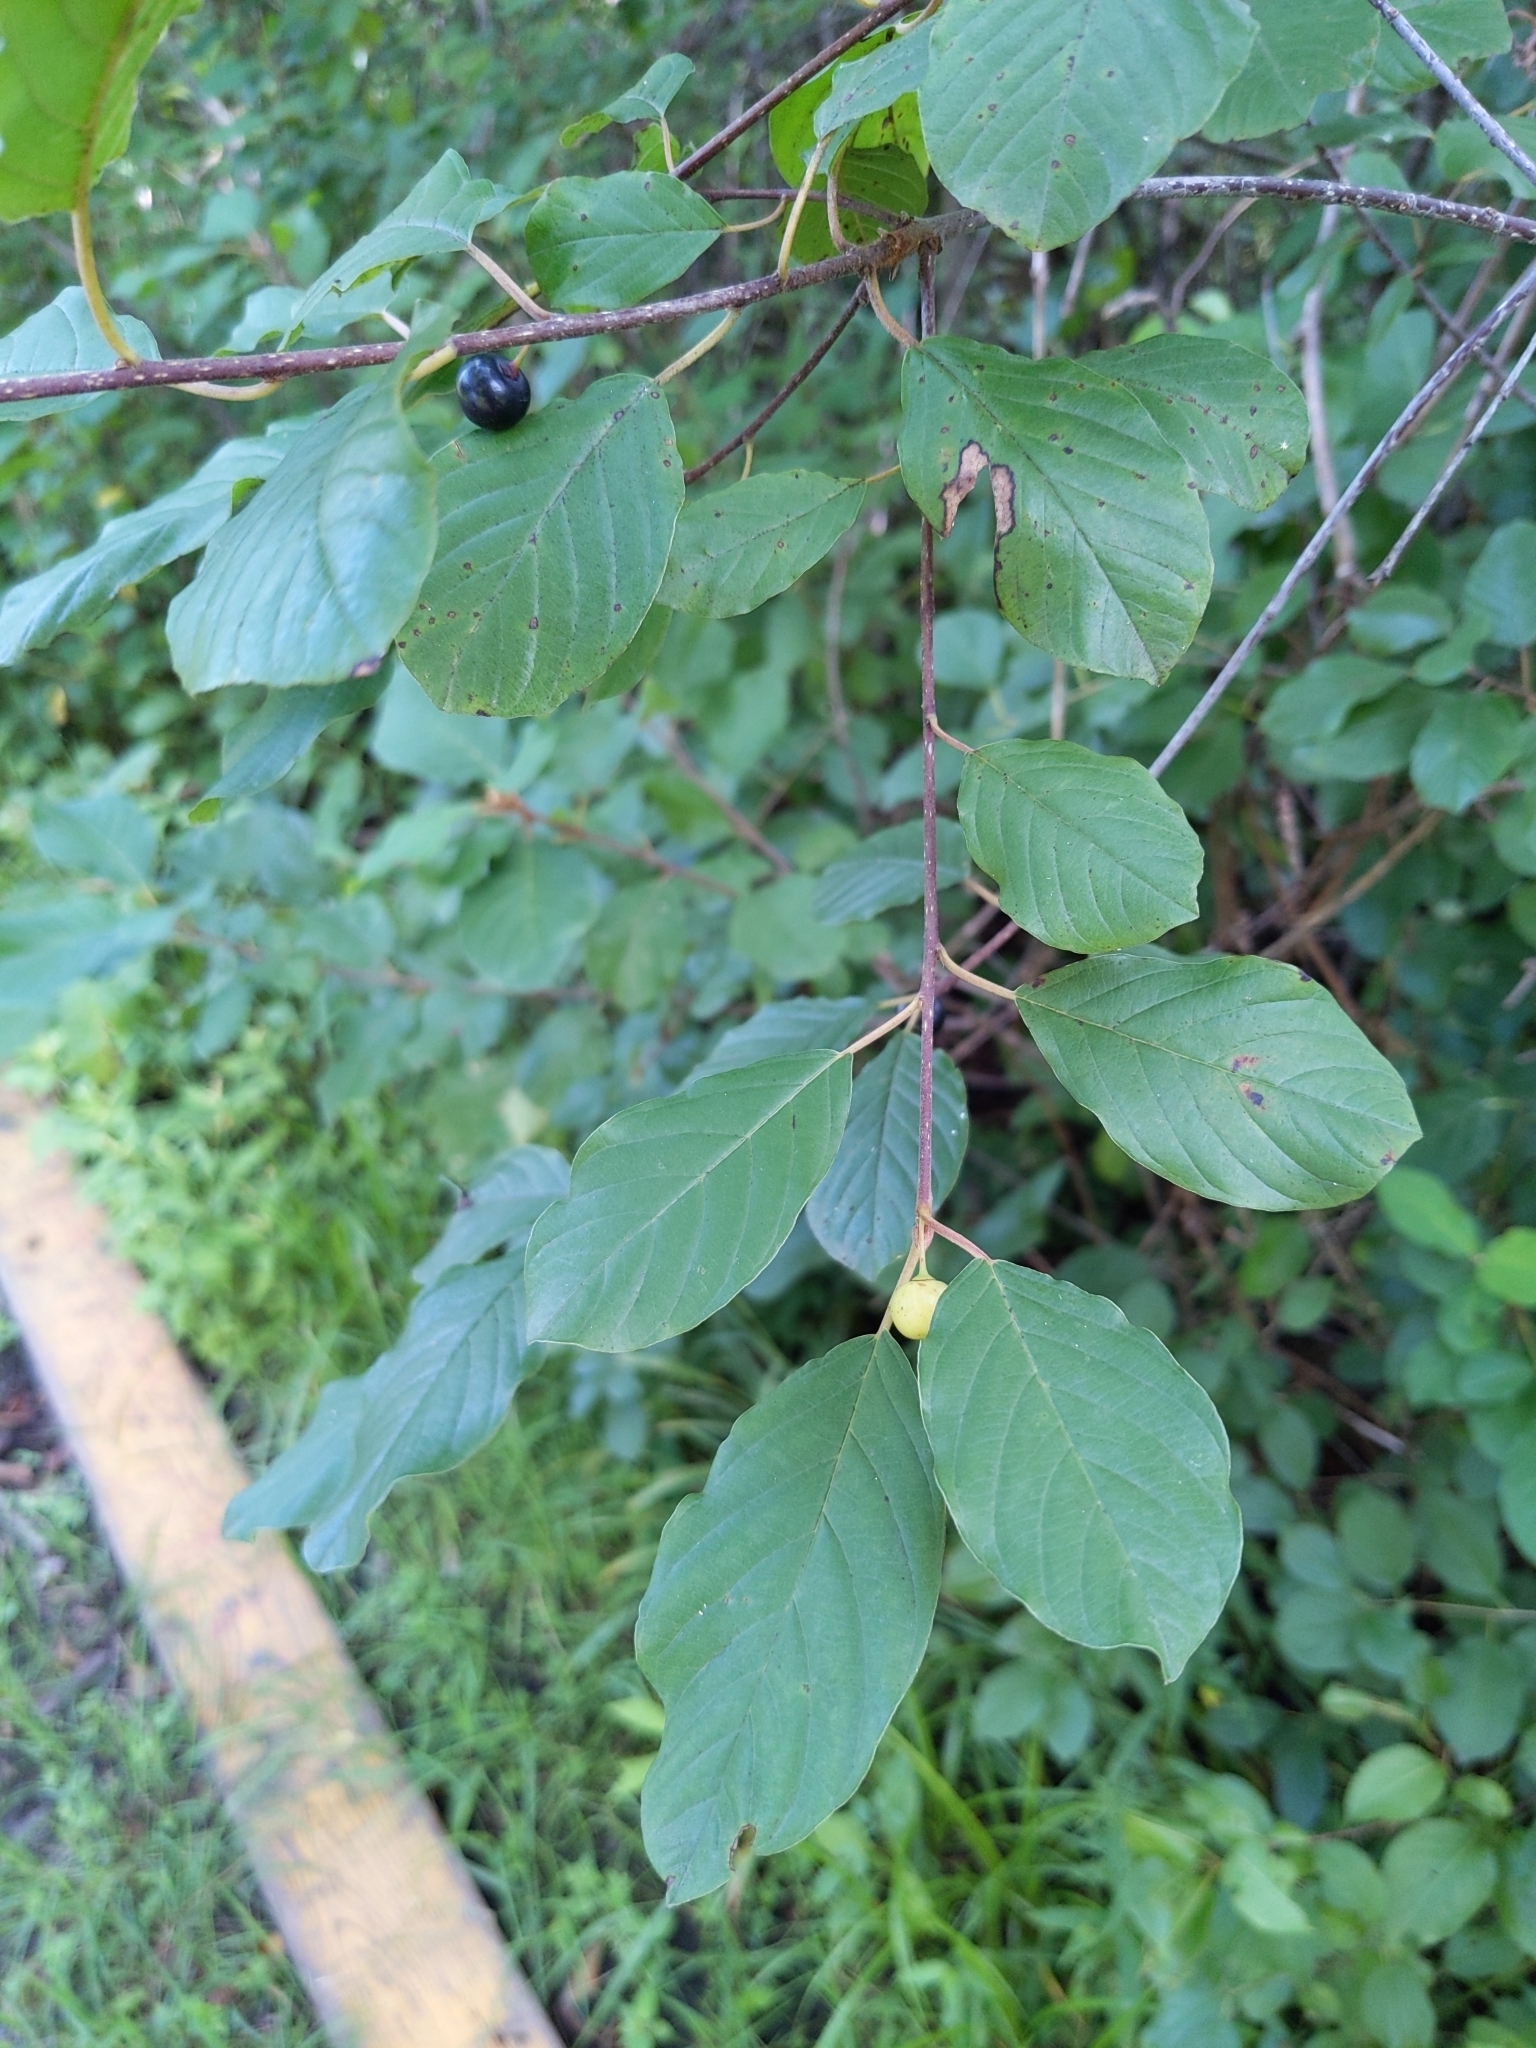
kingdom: Plantae
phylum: Tracheophyta
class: Magnoliopsida
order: Rosales
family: Rhamnaceae
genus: Frangula
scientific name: Frangula alnus
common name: Alder buckthorn
